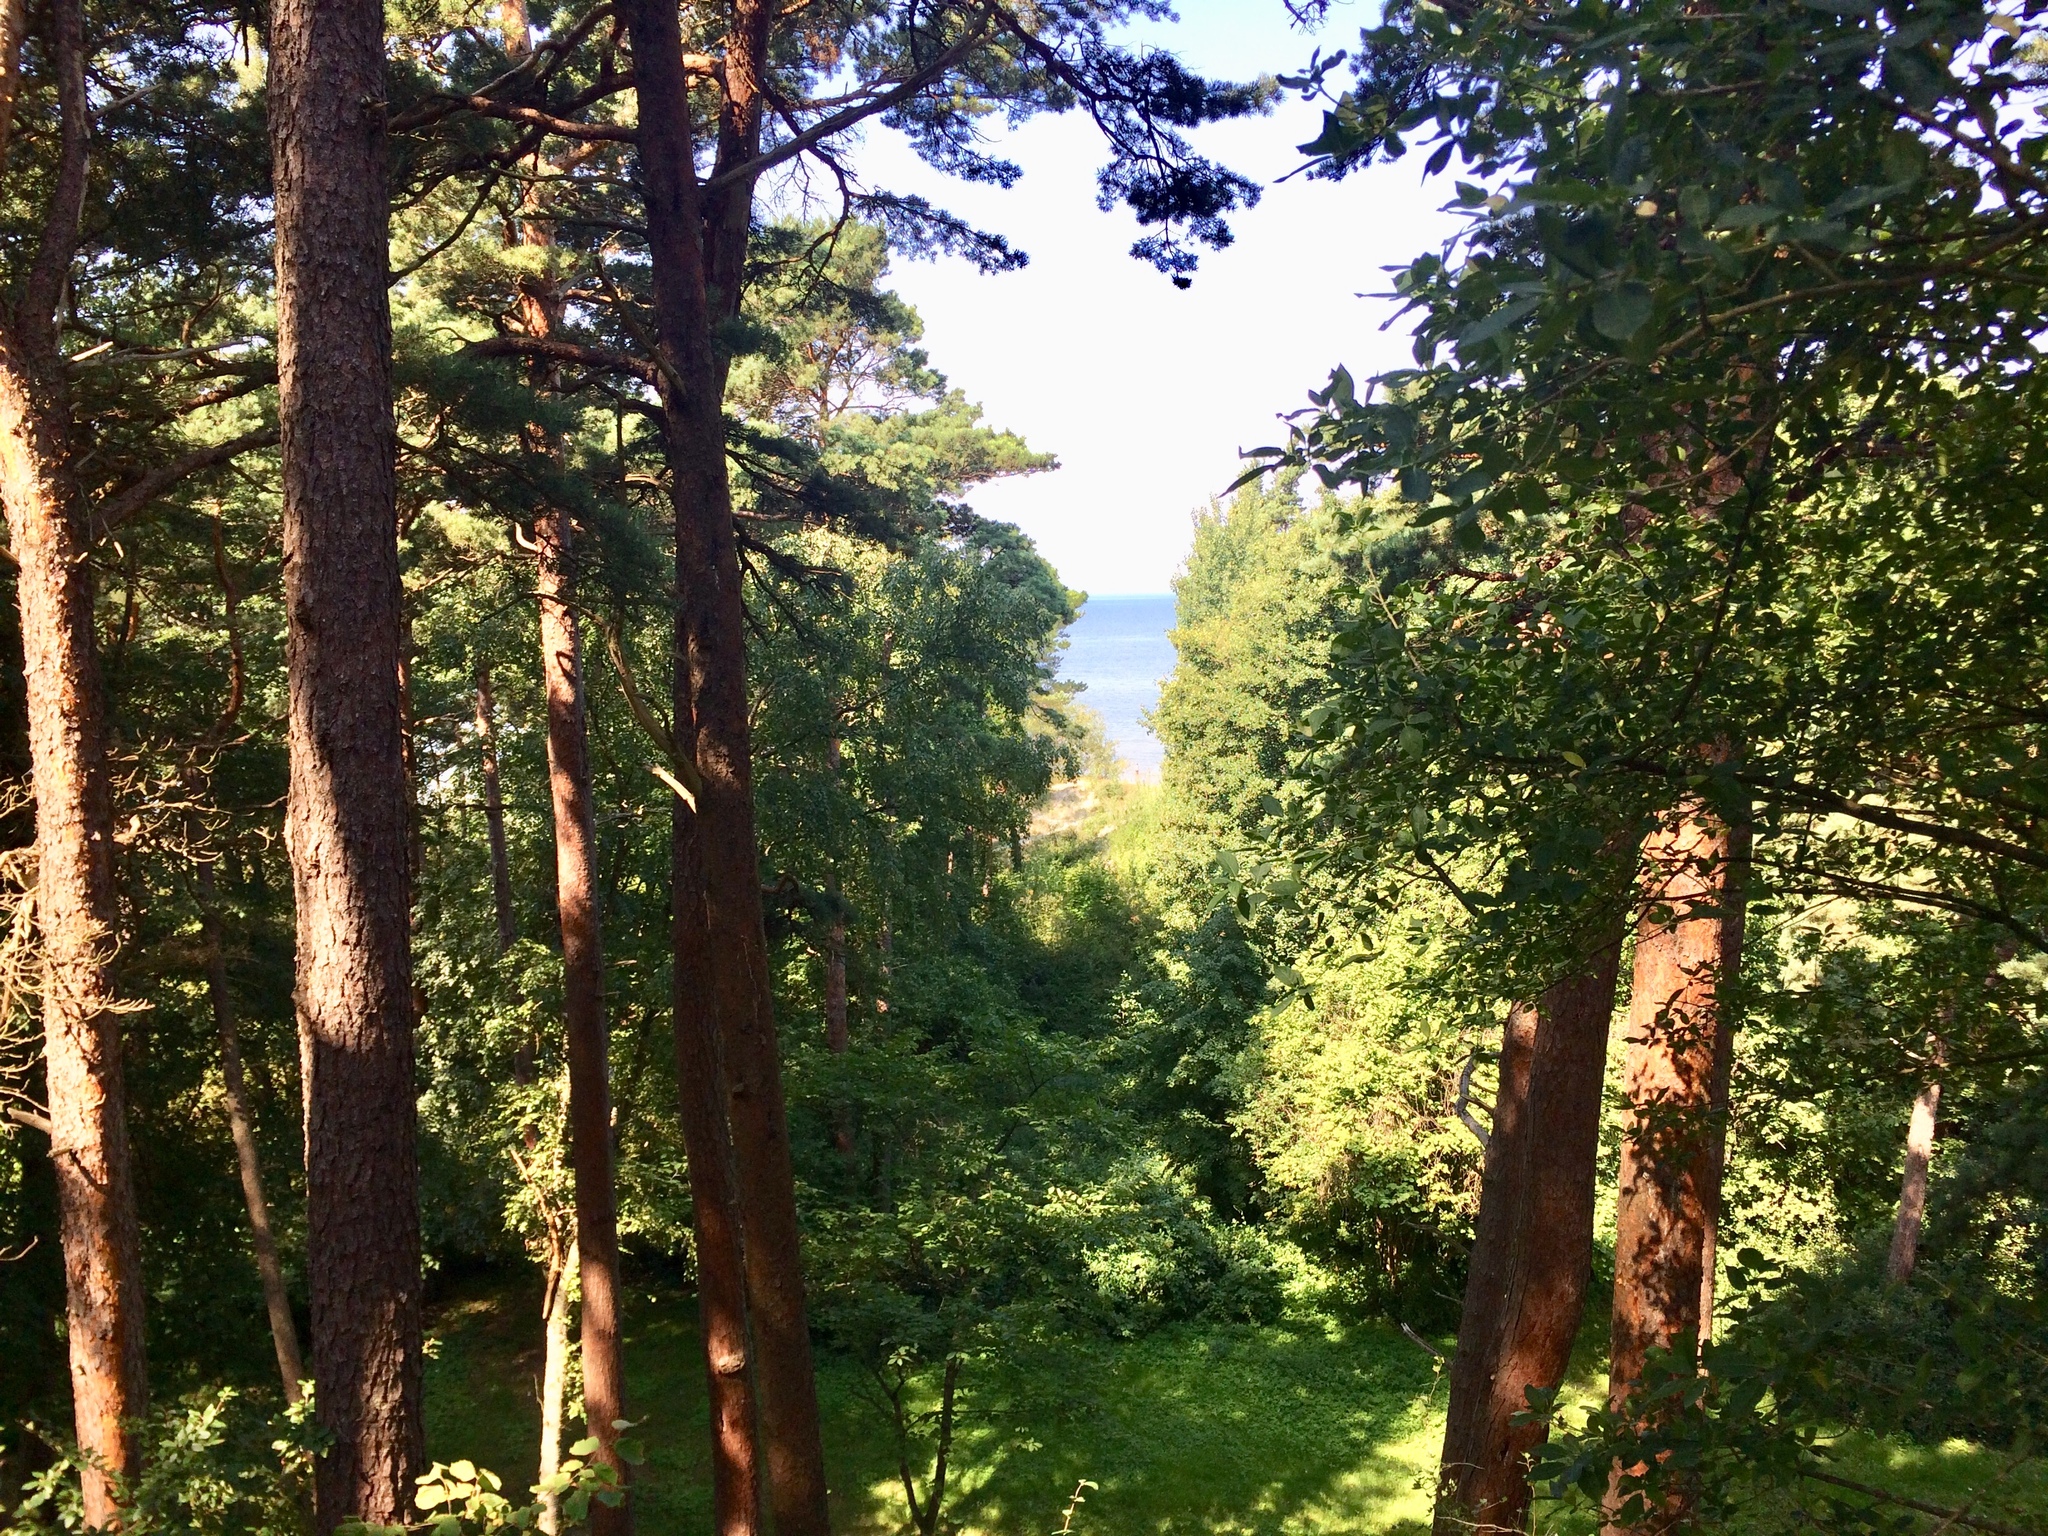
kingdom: Plantae
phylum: Tracheophyta
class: Pinopsida
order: Pinales
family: Pinaceae
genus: Pinus
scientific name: Pinus sylvestris
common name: Scots pine
